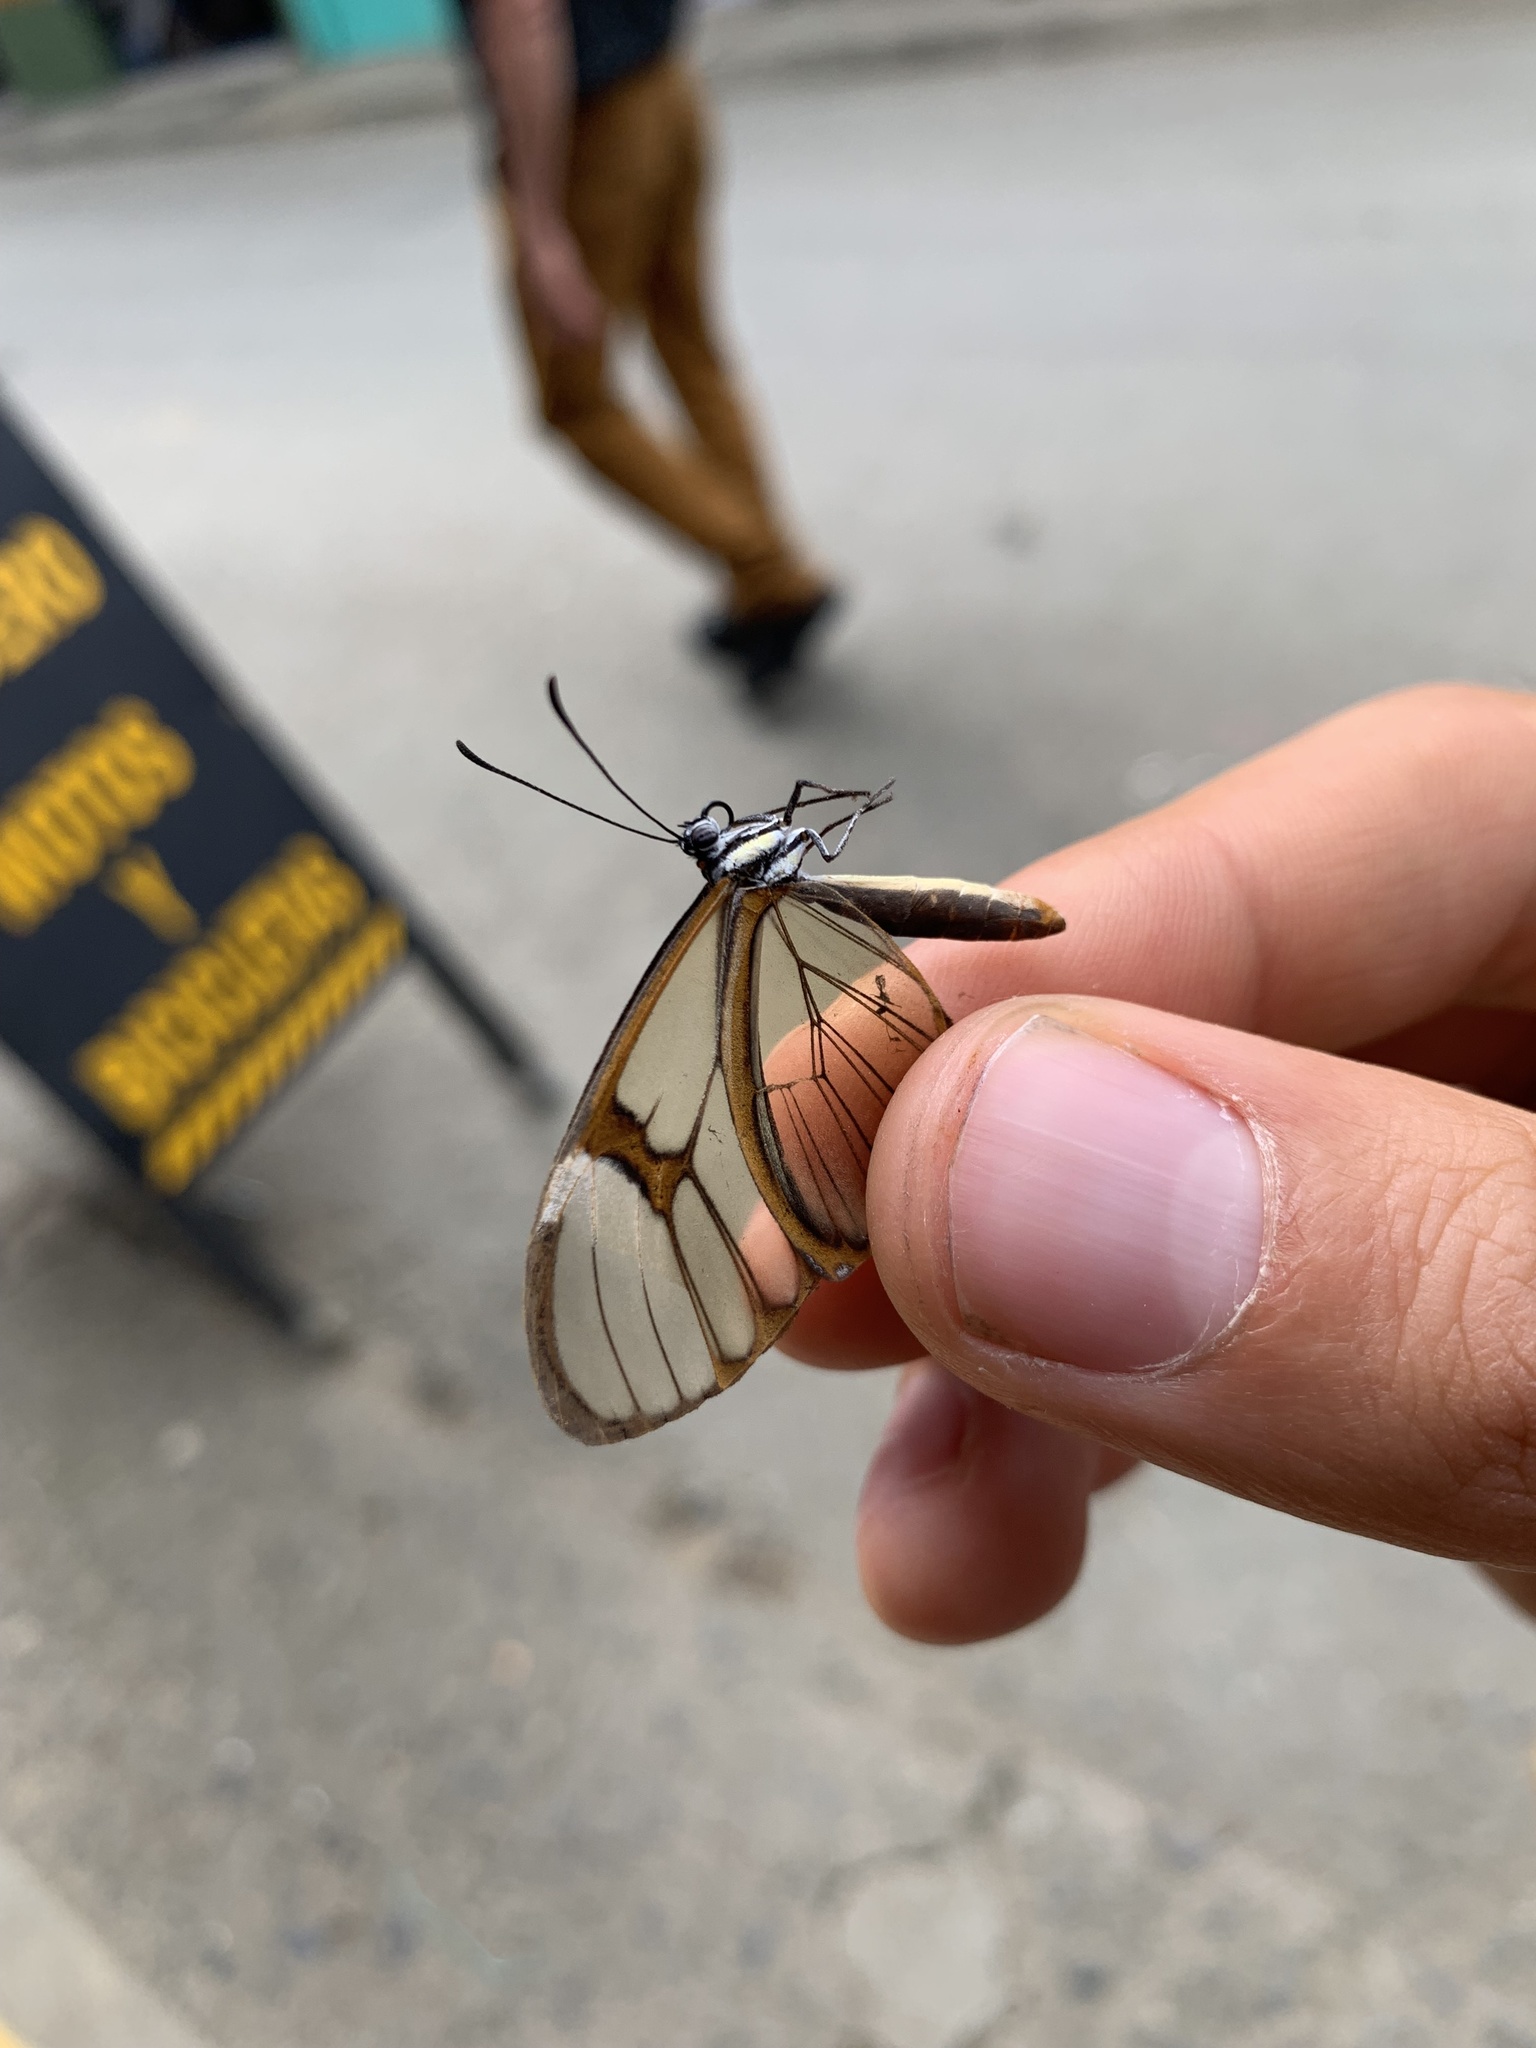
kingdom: Animalia
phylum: Arthropoda
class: Insecta
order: Lepidoptera
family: Nymphalidae
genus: Pagyris
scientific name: Pagyris cymothoe
